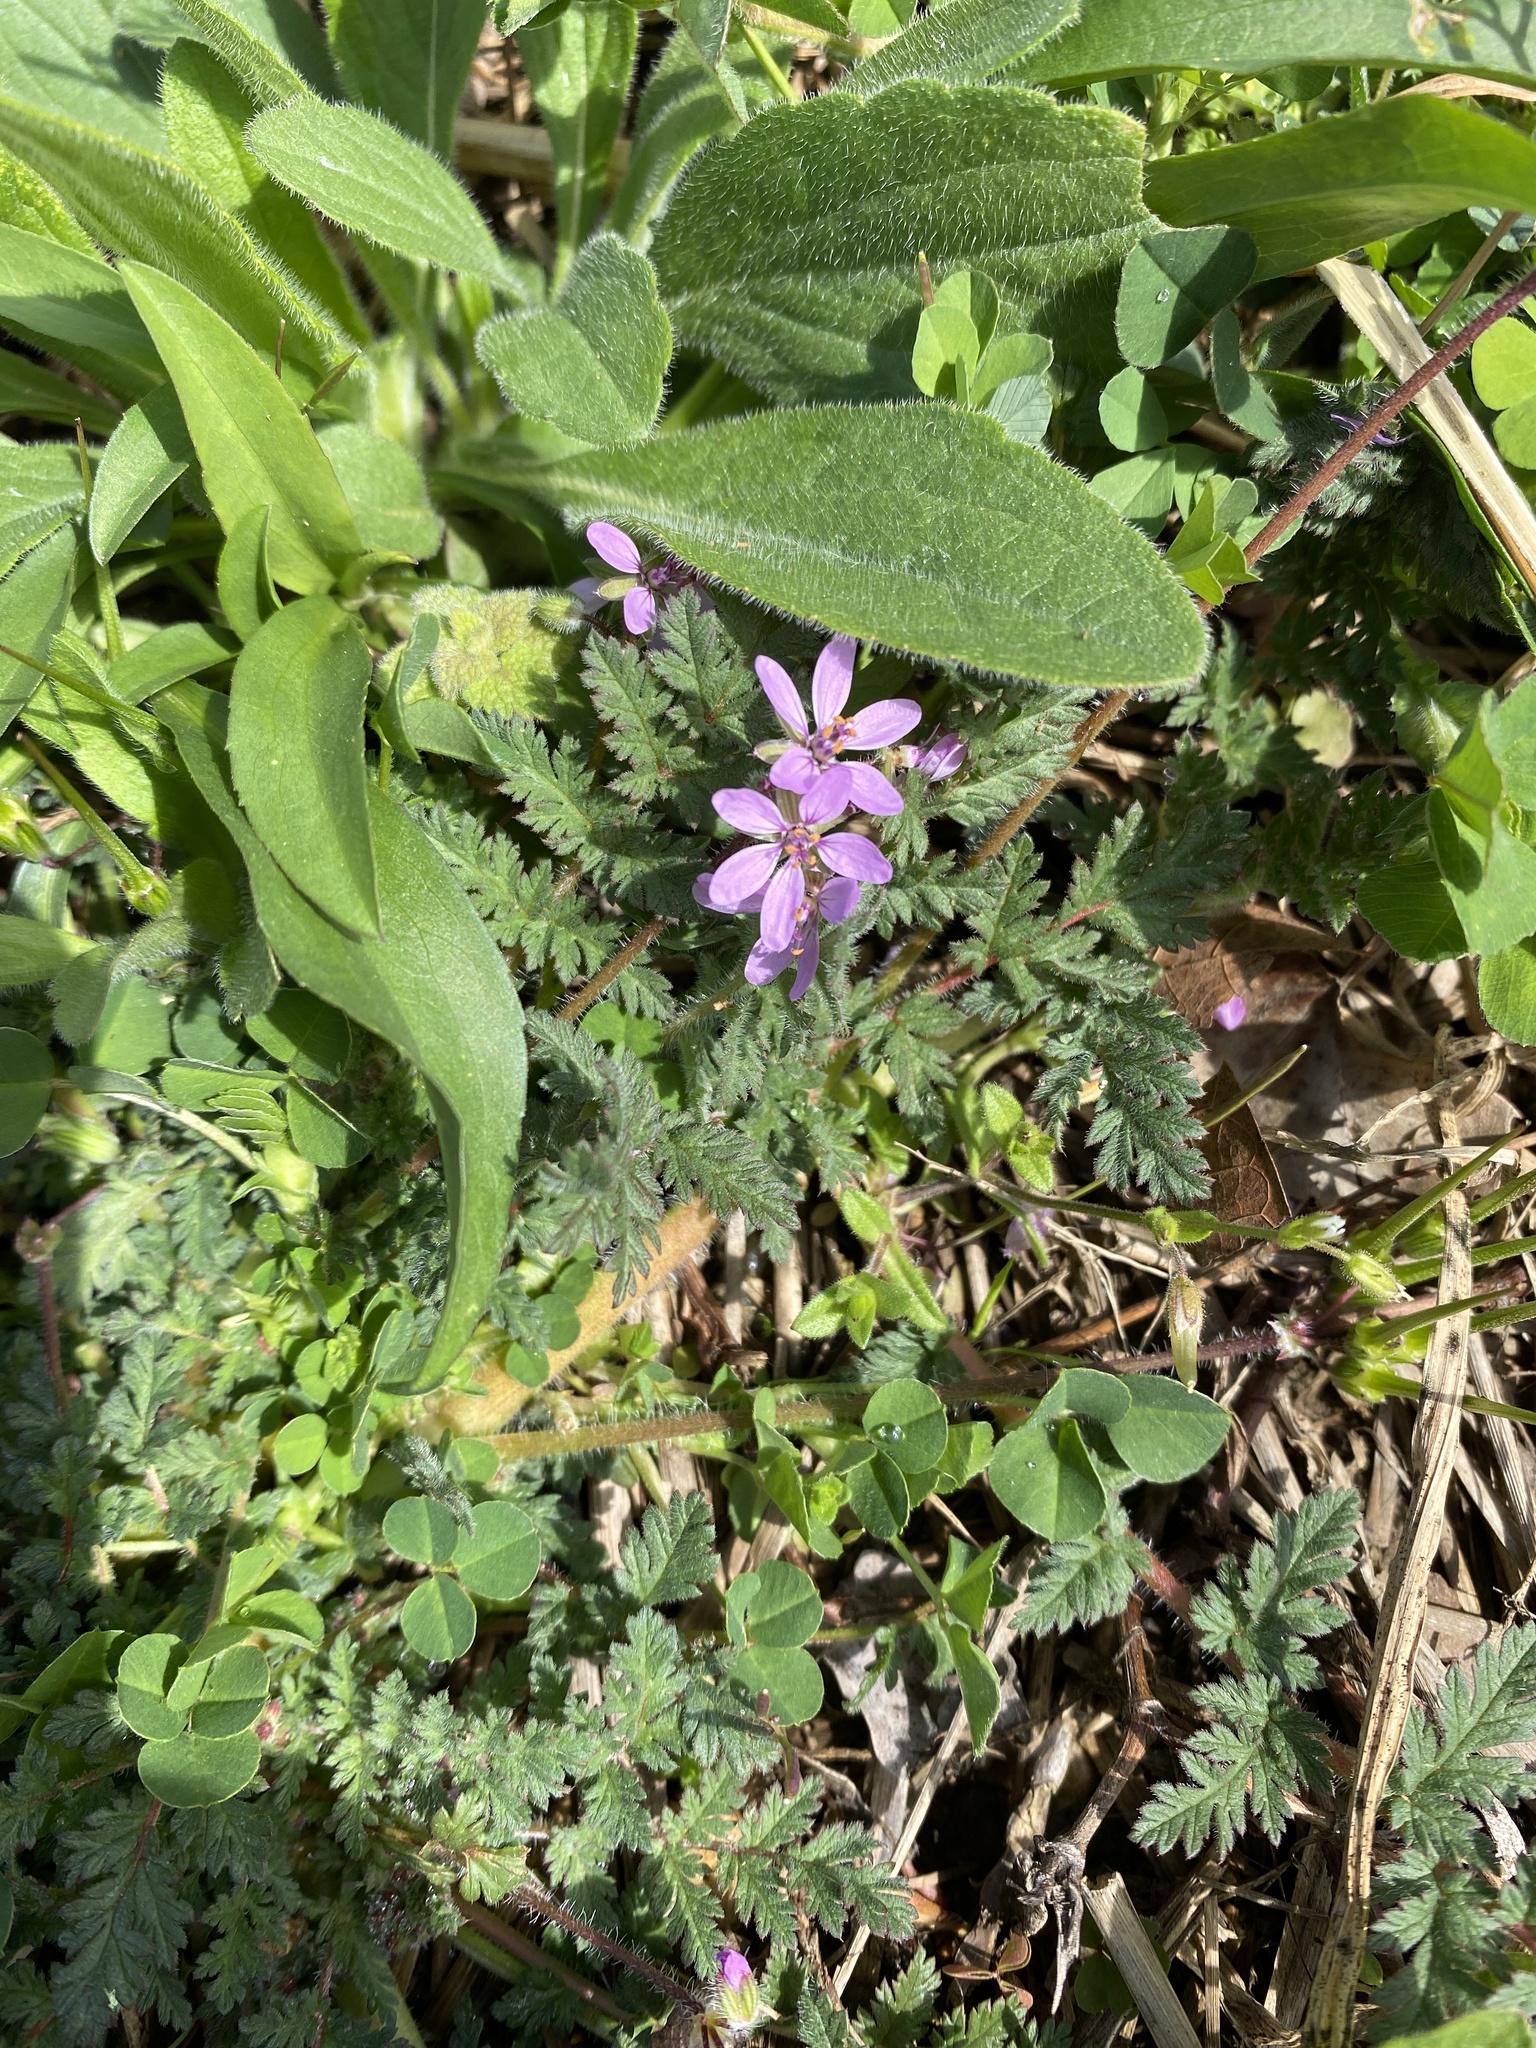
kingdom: Plantae
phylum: Tracheophyta
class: Magnoliopsida
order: Geraniales
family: Geraniaceae
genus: Erodium
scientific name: Erodium cicutarium
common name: Common stork's-bill
